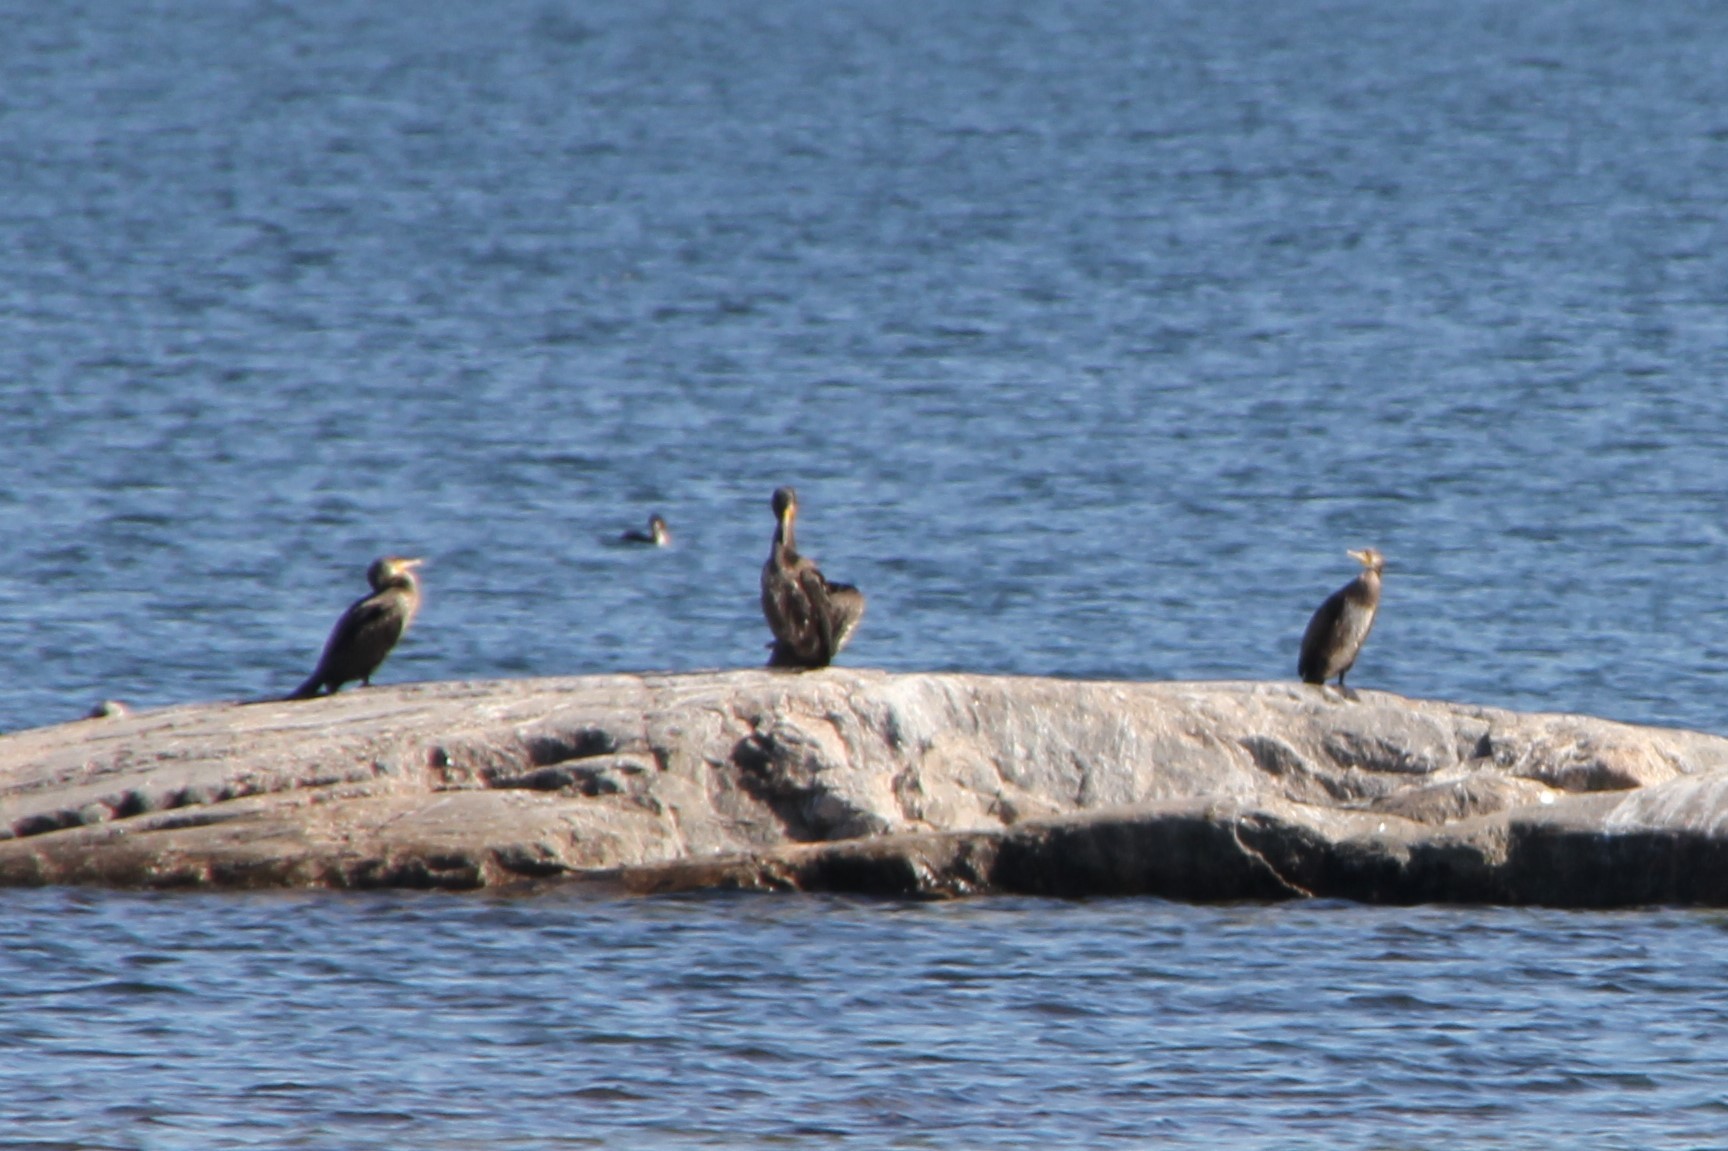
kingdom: Animalia
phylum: Chordata
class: Aves
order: Suliformes
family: Phalacrocoracidae
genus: Phalacrocorax
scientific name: Phalacrocorax carbo
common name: Great cormorant
